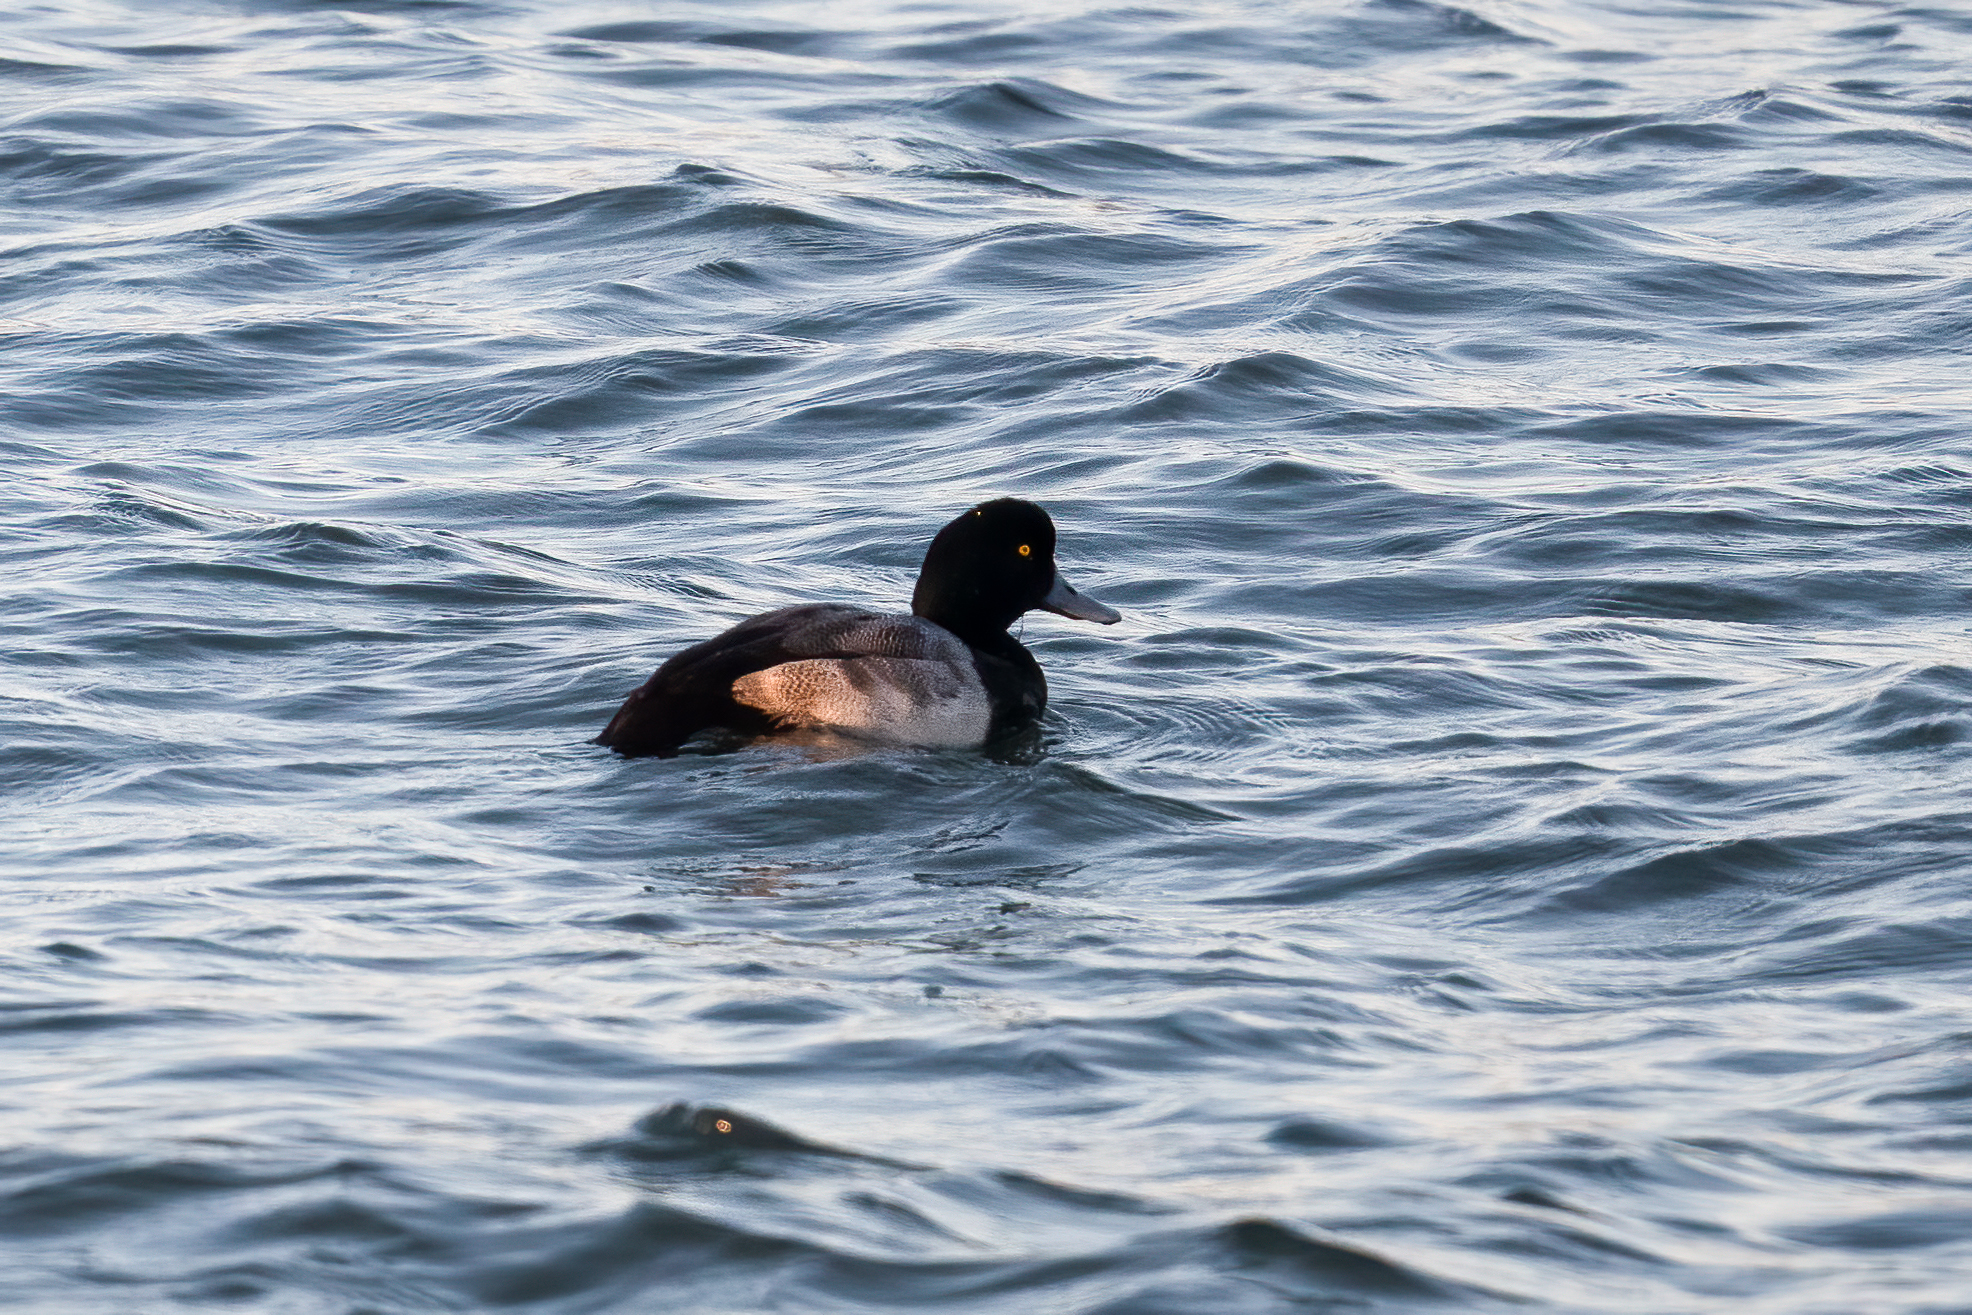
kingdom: Animalia
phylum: Chordata
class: Aves
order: Anseriformes
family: Anatidae
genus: Aythya
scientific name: Aythya marila
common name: Greater scaup
